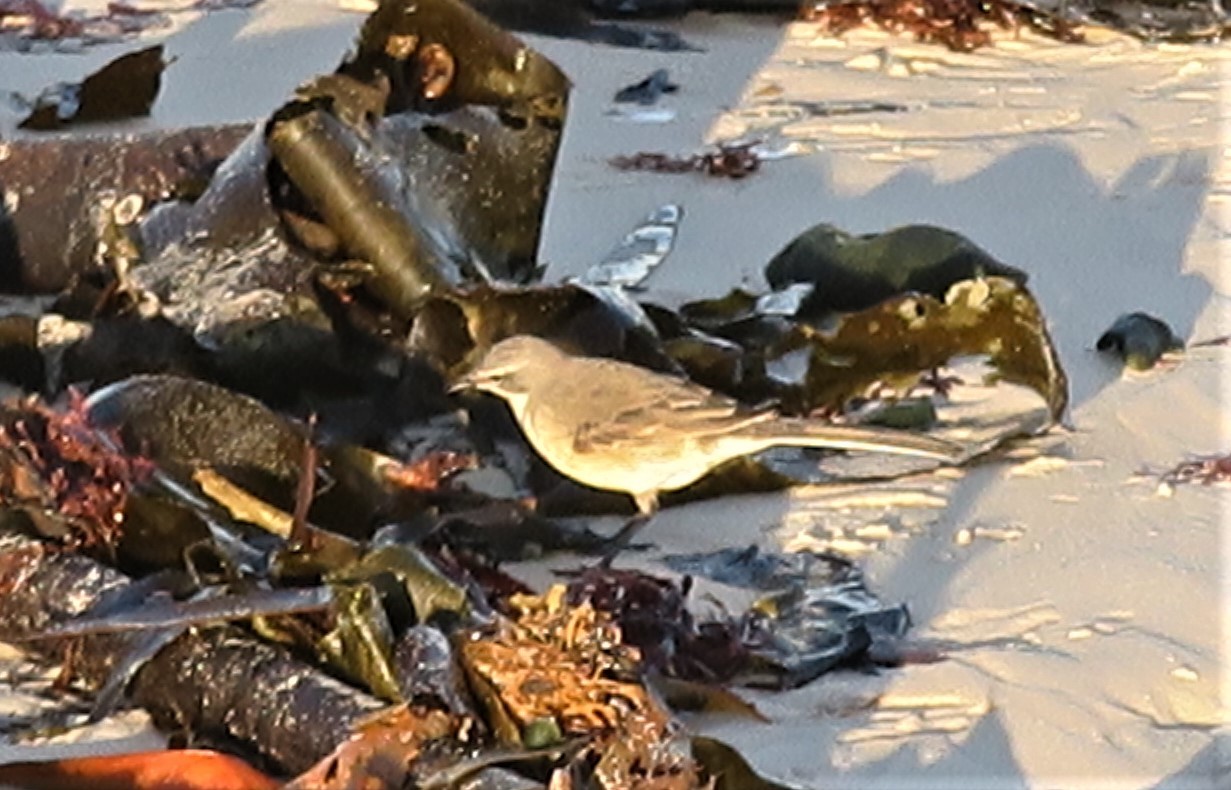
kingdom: Animalia
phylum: Chordata
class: Aves
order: Passeriformes
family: Motacillidae
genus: Motacilla
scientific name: Motacilla capensis
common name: Cape wagtail
